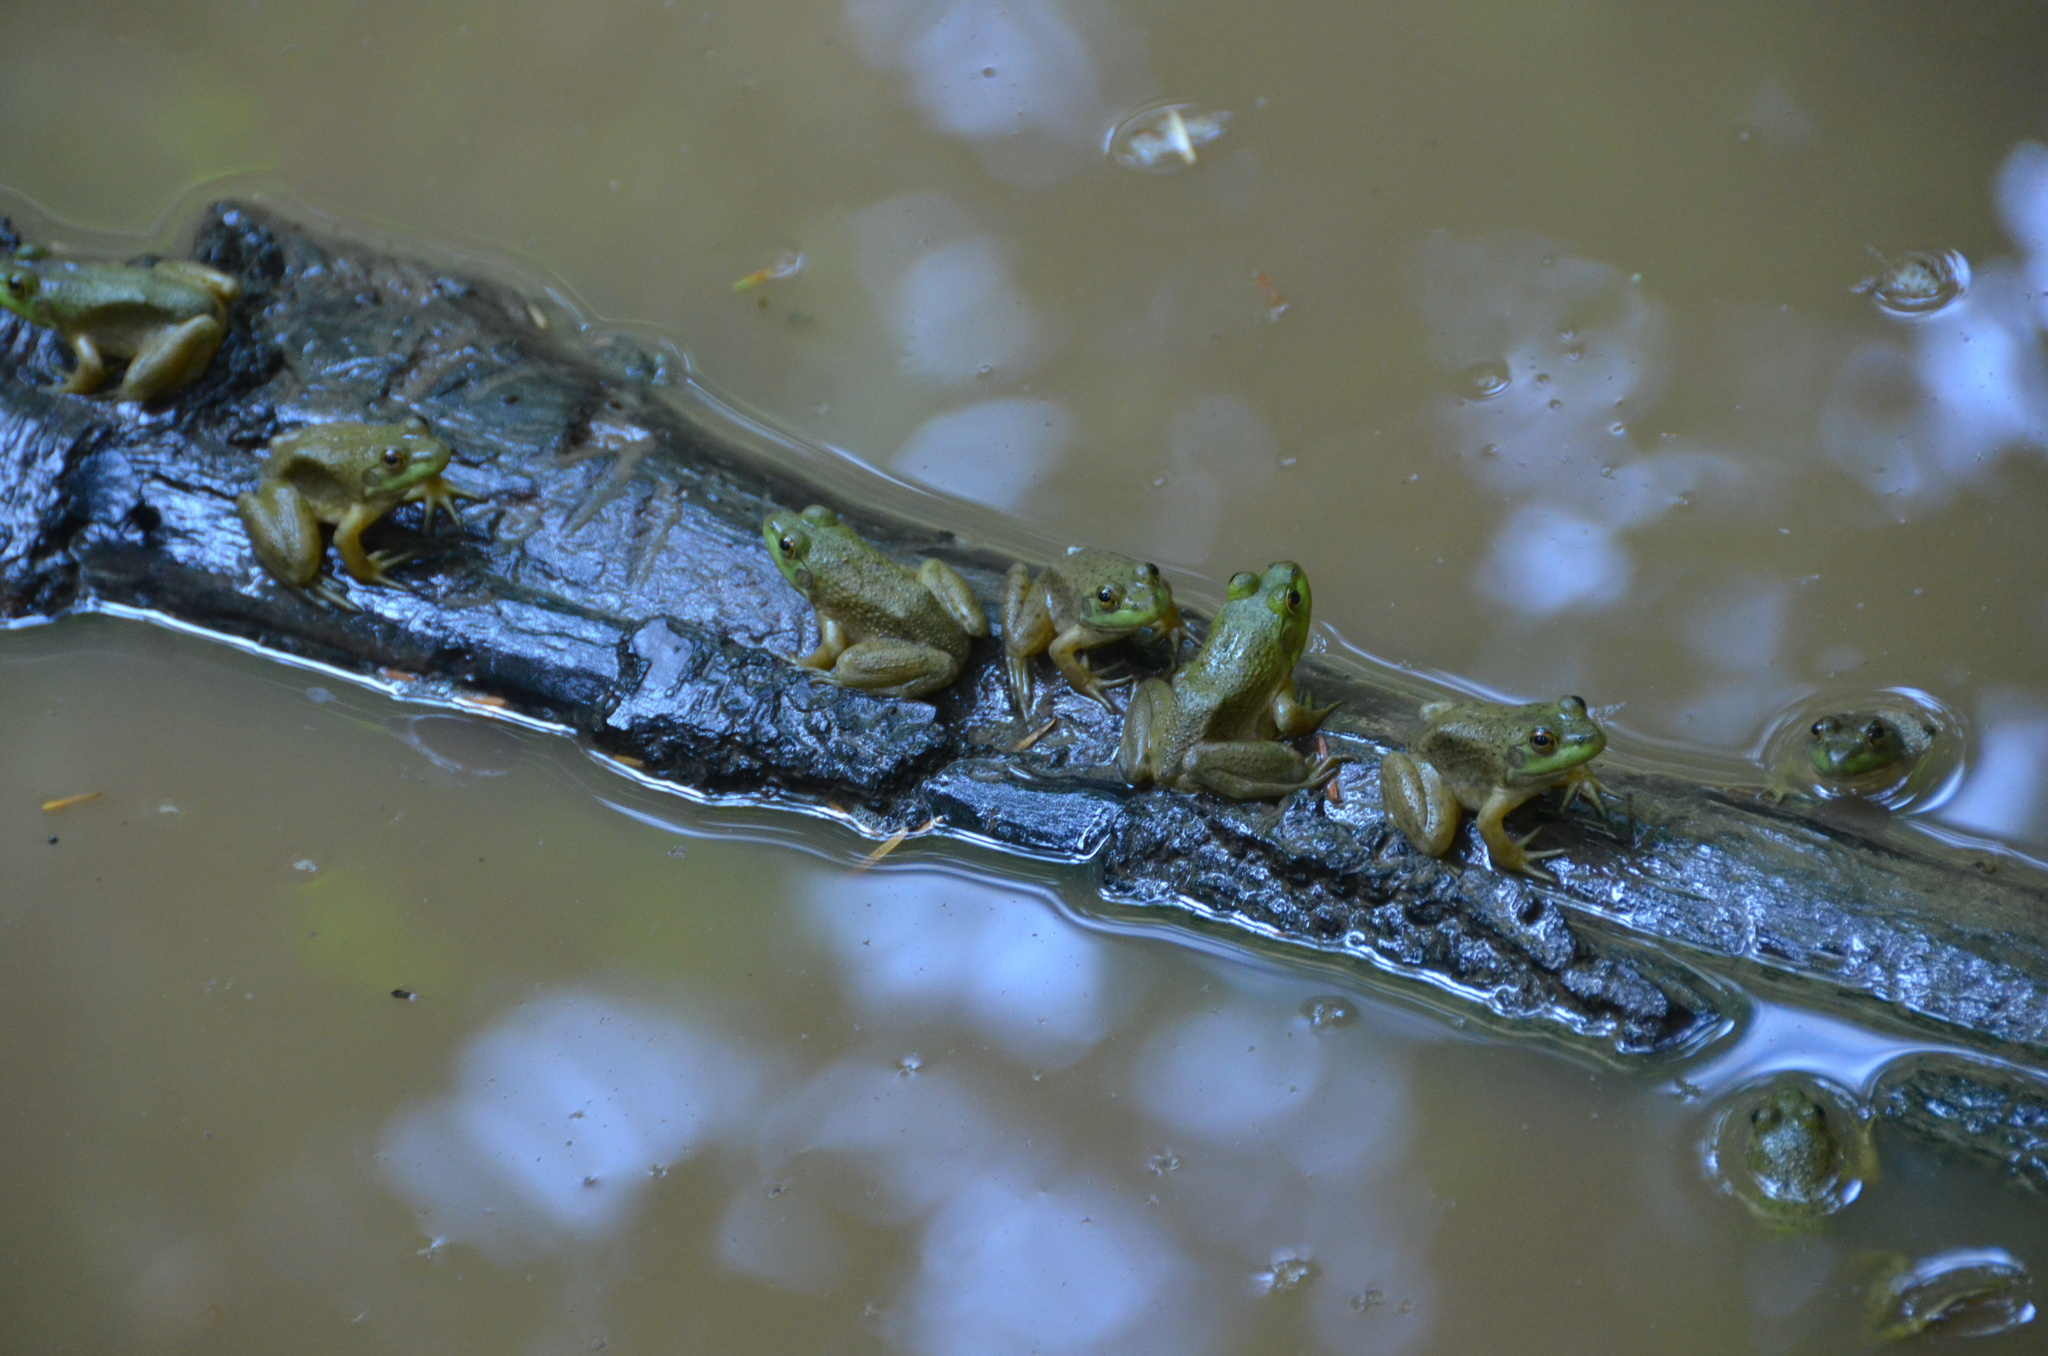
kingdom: Animalia
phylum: Chordata
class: Amphibia
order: Anura
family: Ranidae
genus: Lithobates
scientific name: Lithobates catesbeianus
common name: American bullfrog
